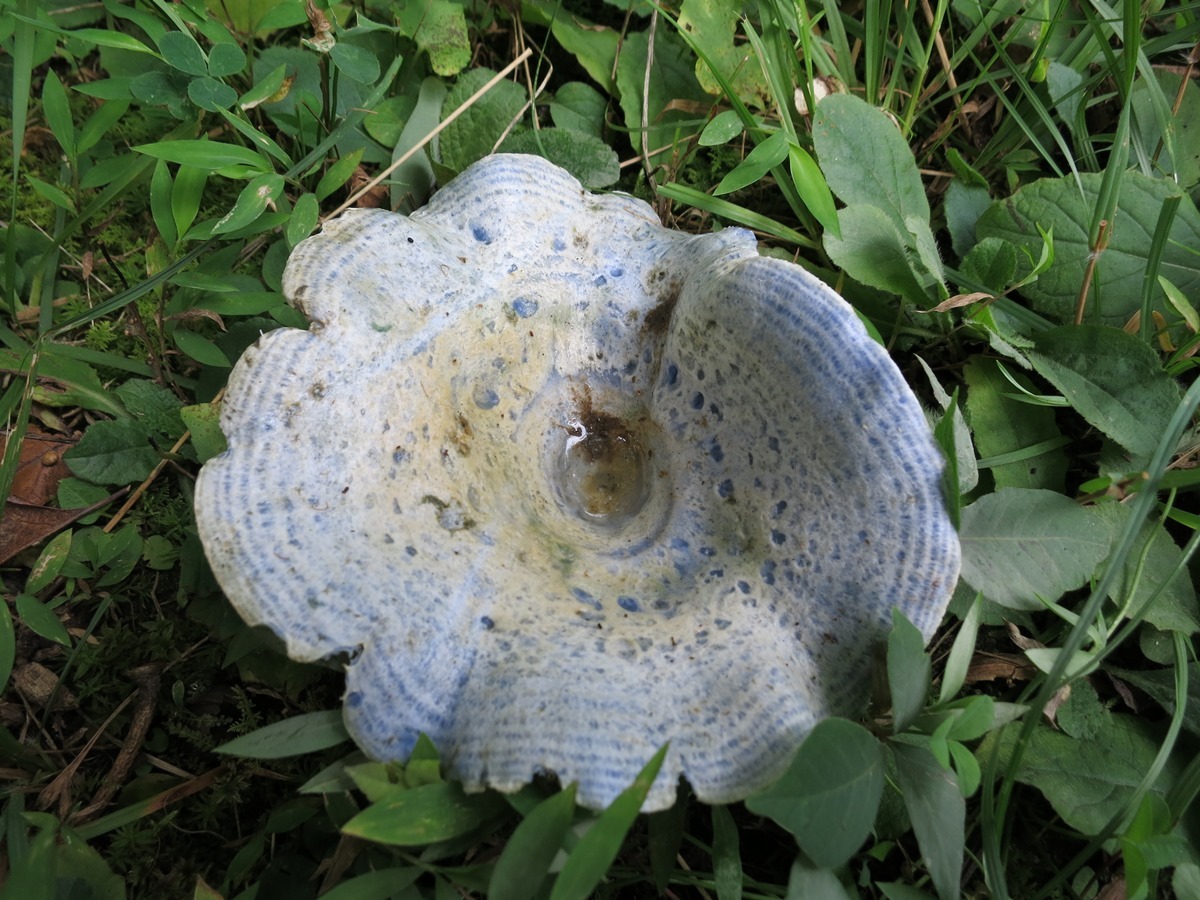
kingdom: Fungi
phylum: Basidiomycota
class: Agaricomycetes
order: Russulales
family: Russulaceae
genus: Lactarius
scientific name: Lactarius indigo
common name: Indigo milk cap
